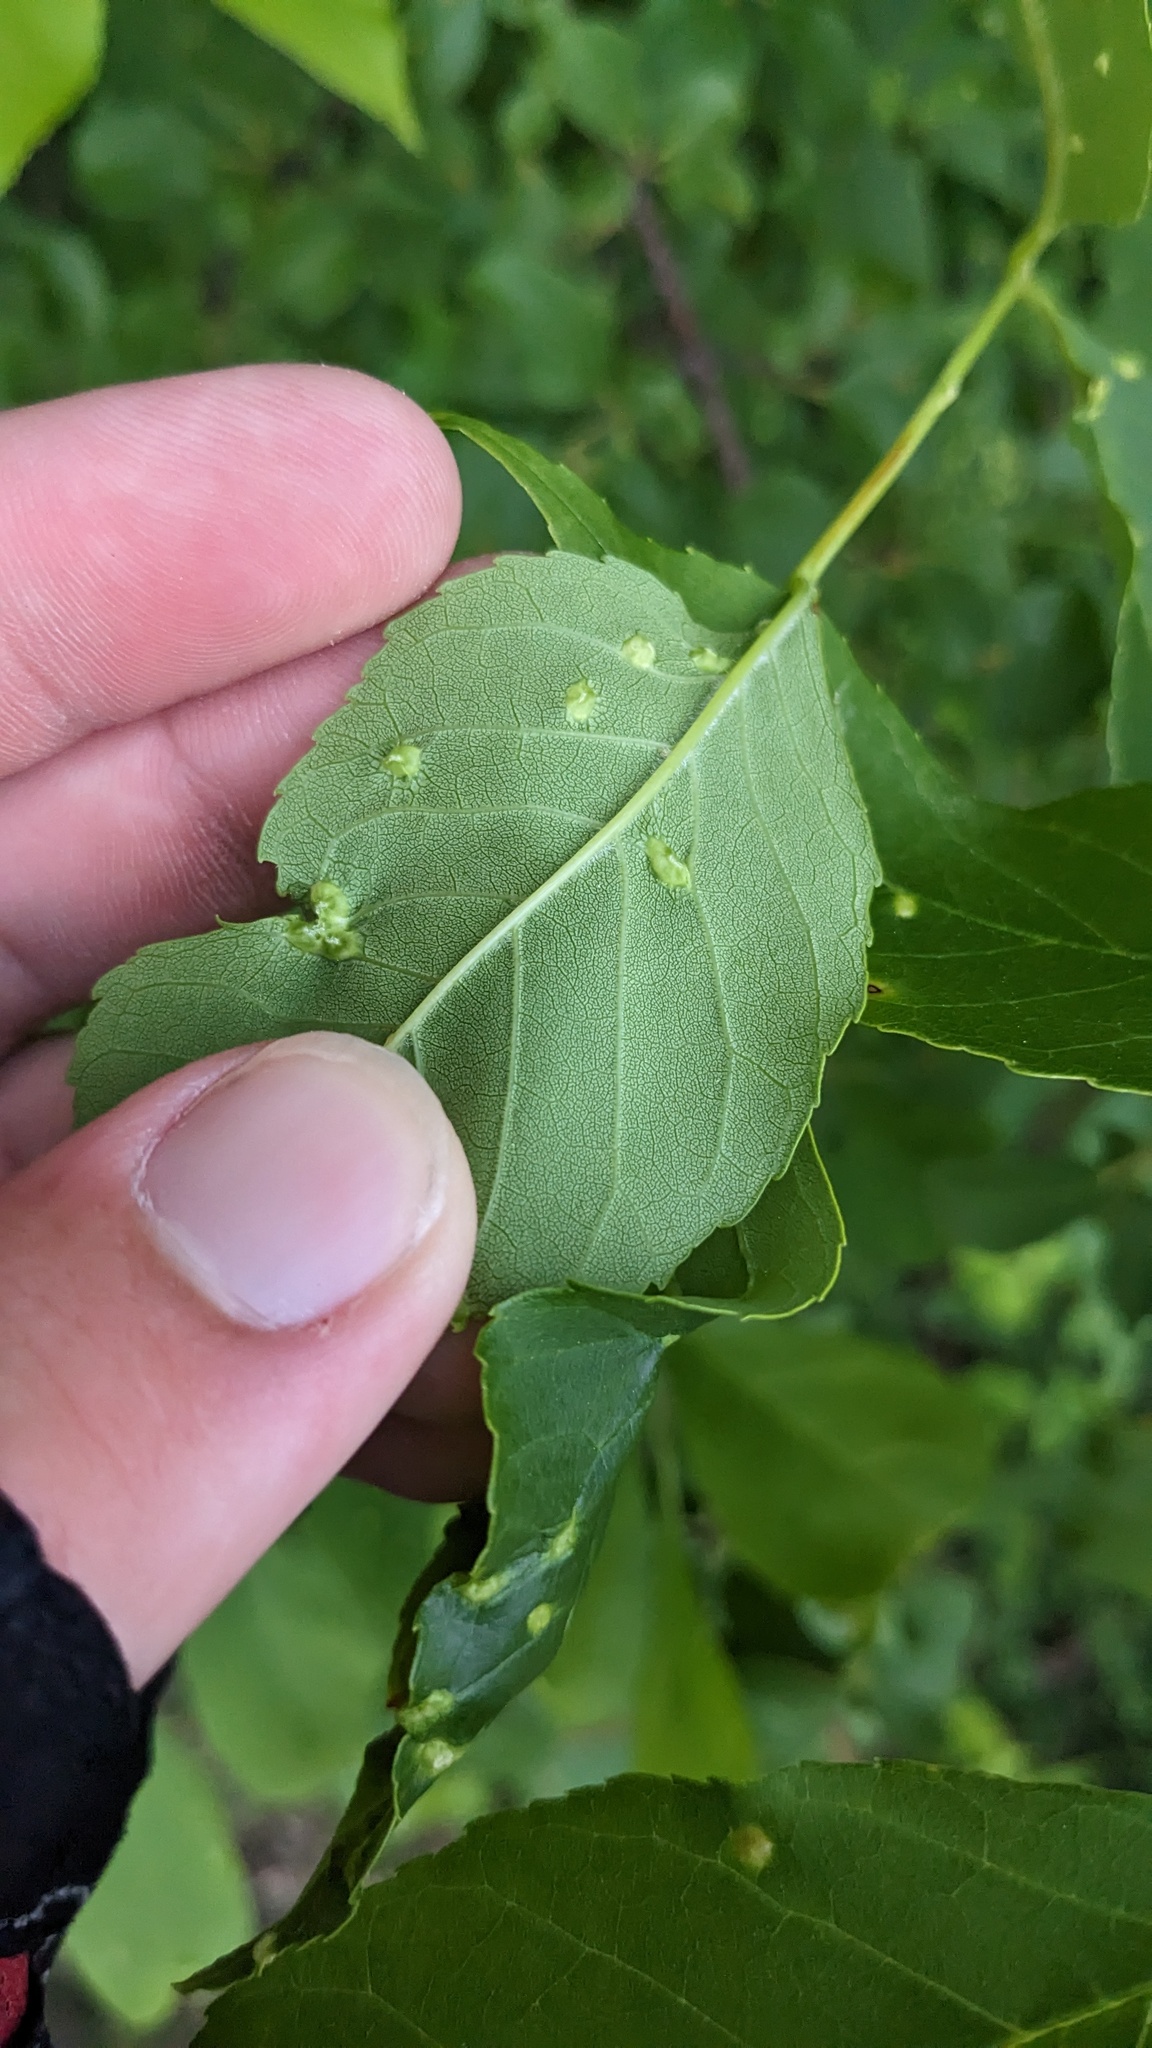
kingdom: Animalia
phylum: Arthropoda
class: Arachnida
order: Trombidiformes
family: Eriophyidae
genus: Aceria
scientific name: Aceria fraxinicola
